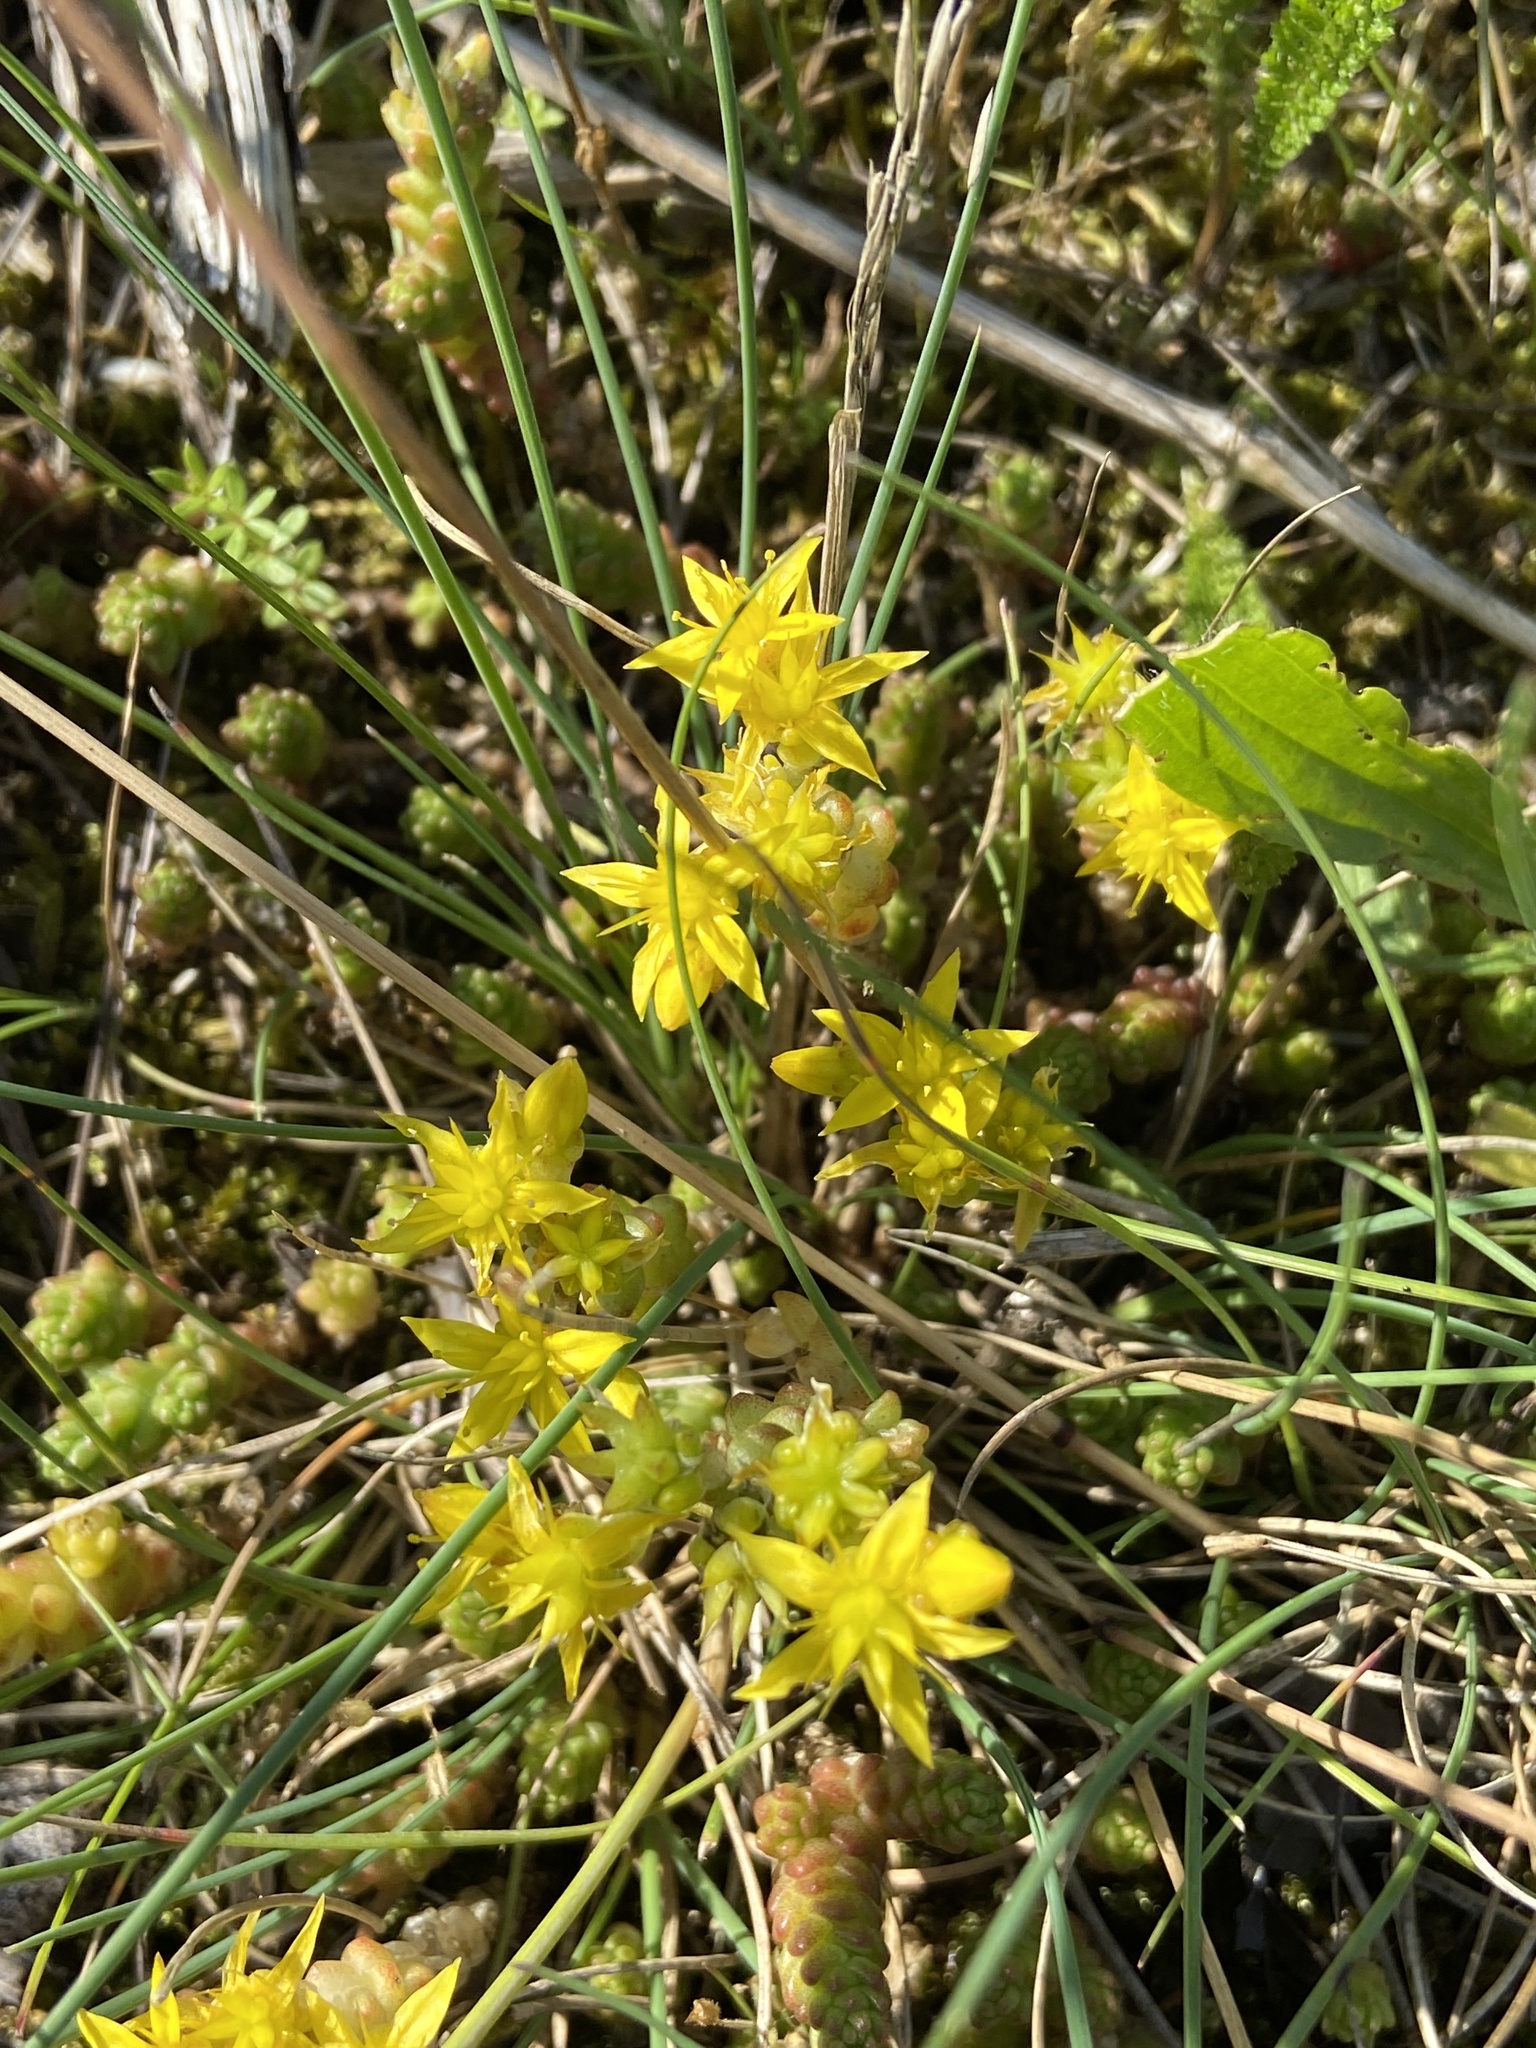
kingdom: Plantae
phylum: Tracheophyta
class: Magnoliopsida
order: Saxifragales
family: Crassulaceae
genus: Sedum
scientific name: Sedum acre
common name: Biting stonecrop
